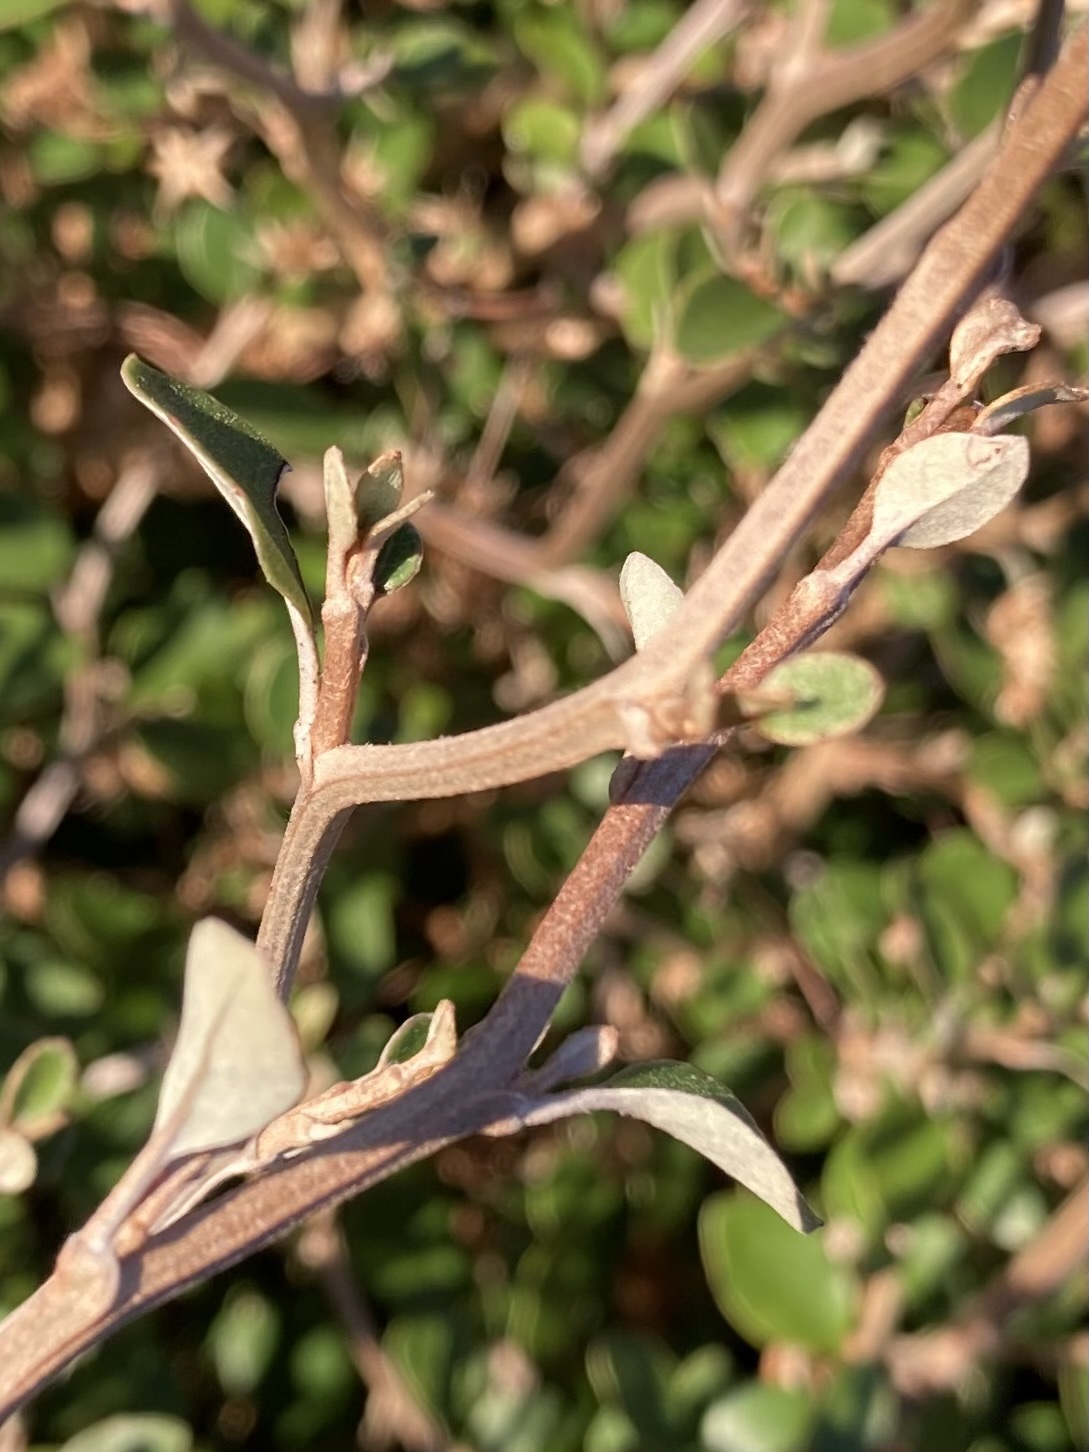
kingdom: Plantae
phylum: Tracheophyta
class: Magnoliopsida
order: Asterales
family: Asteraceae
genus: Olearia
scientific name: Olearia quinquevulnera
